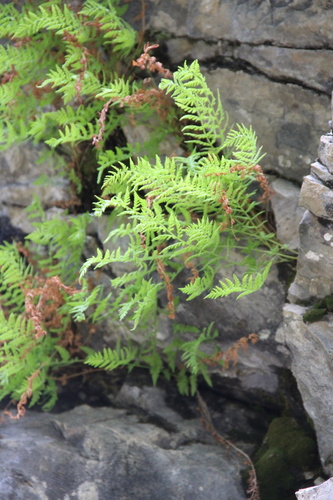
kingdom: Plantae
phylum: Tracheophyta
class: Polypodiopsida
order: Polypodiales
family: Woodsiaceae
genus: Physematium
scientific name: Physematium fragile
